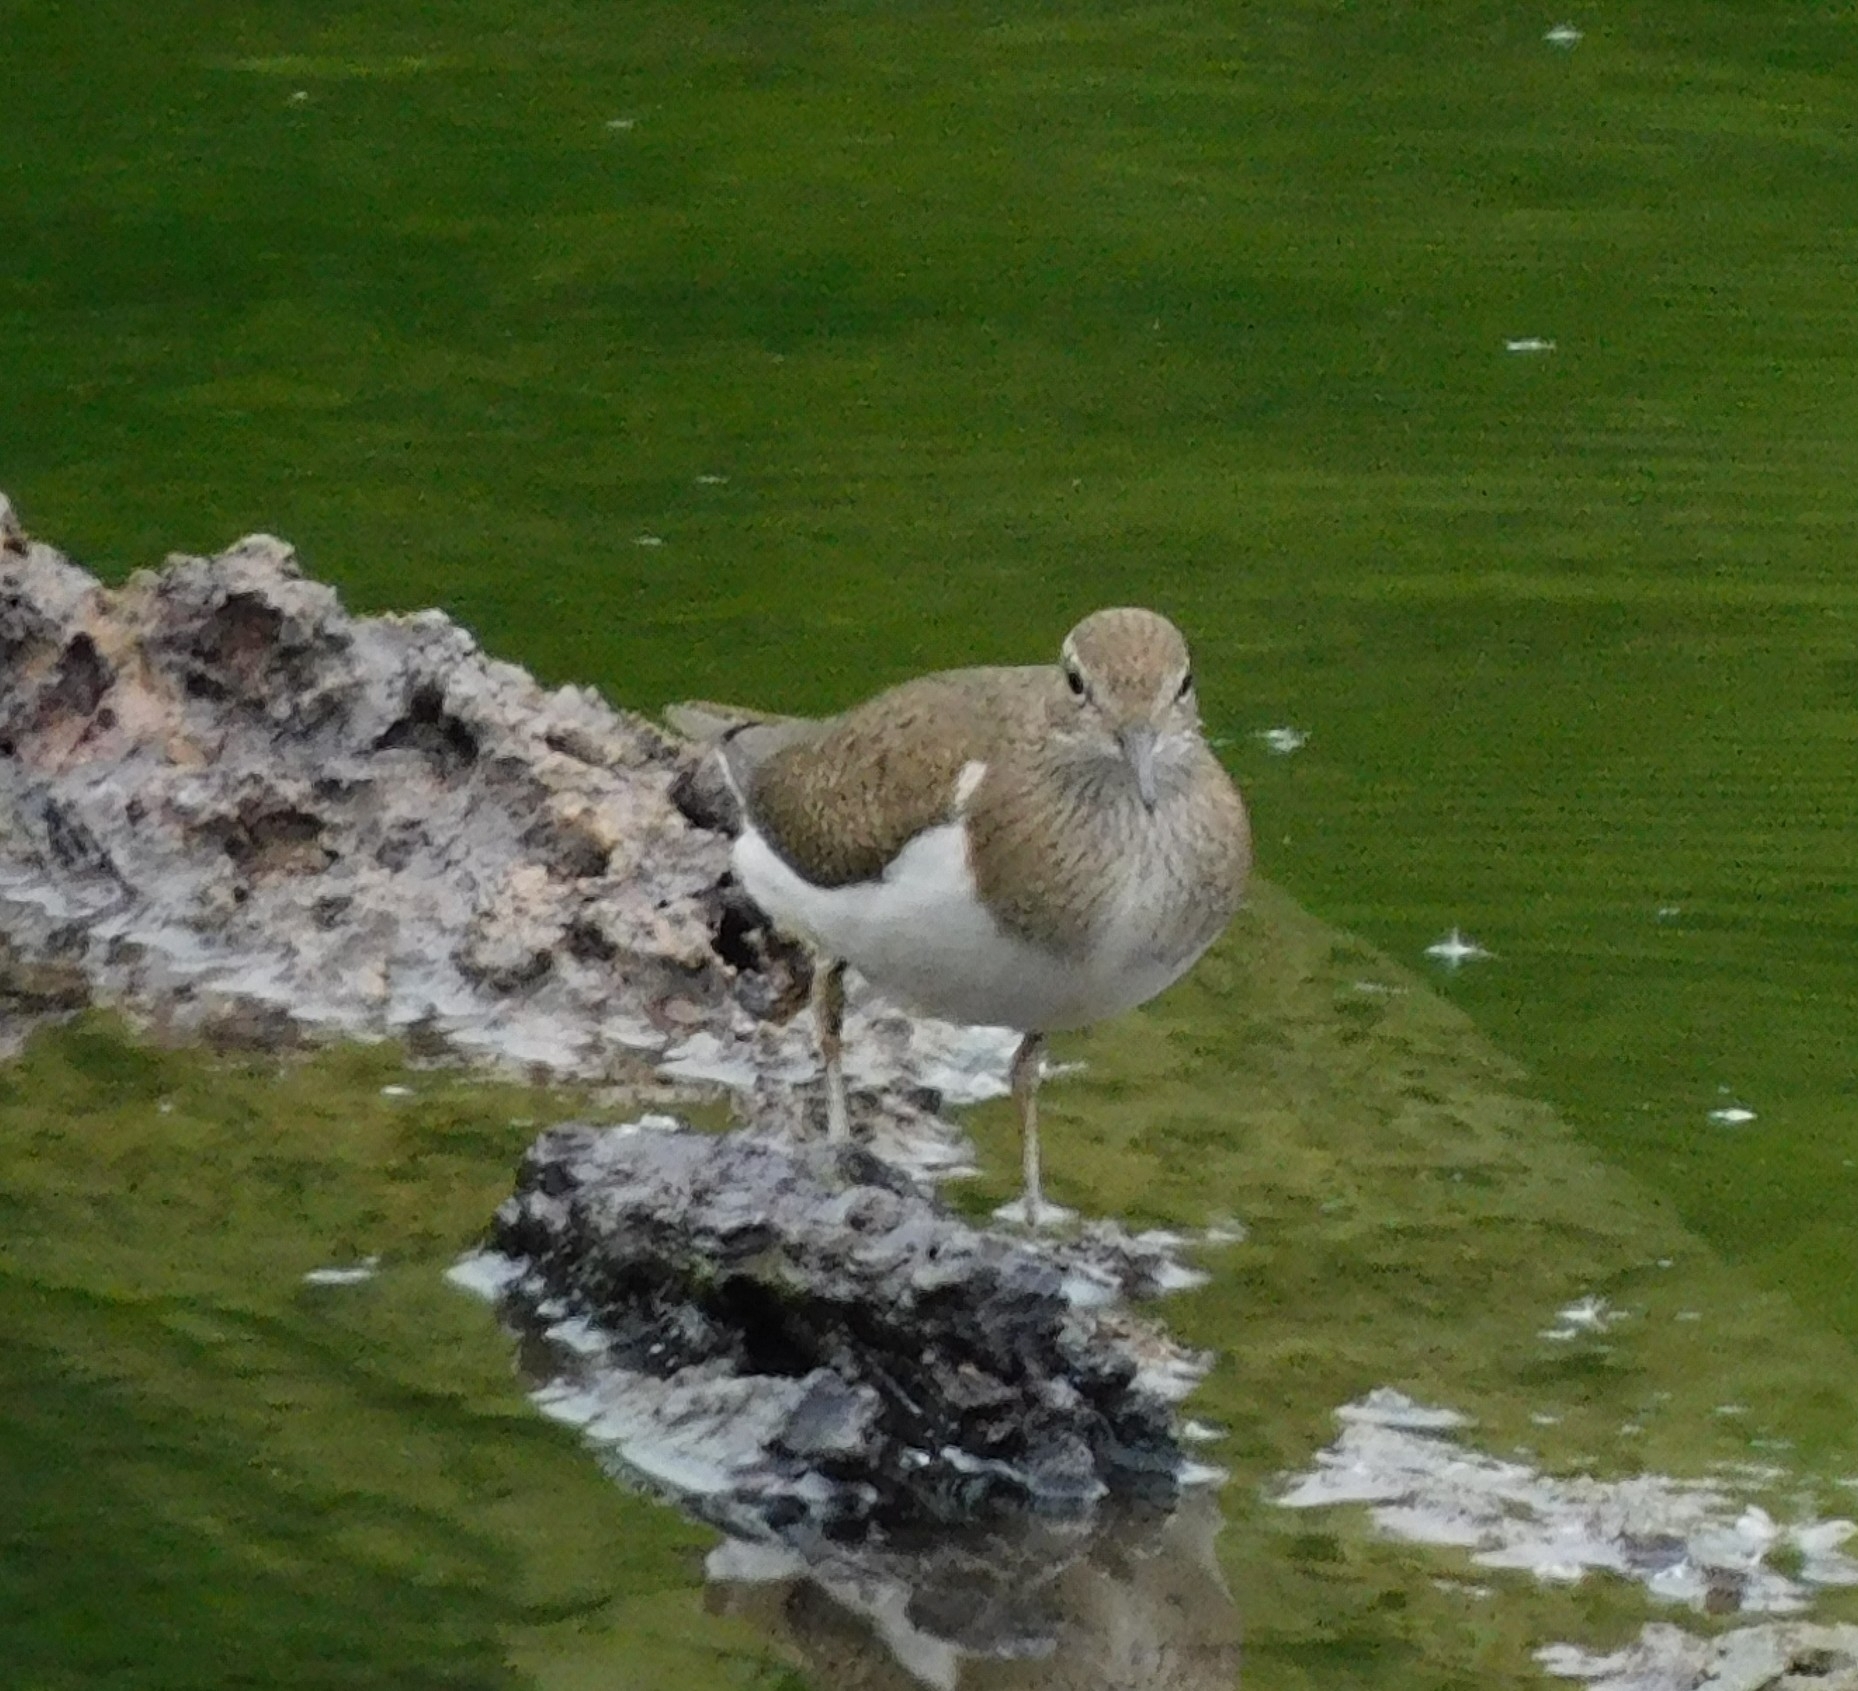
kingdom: Animalia
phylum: Chordata
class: Aves
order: Charadriiformes
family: Scolopacidae
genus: Actitis
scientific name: Actitis hypoleucos
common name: Common sandpiper
